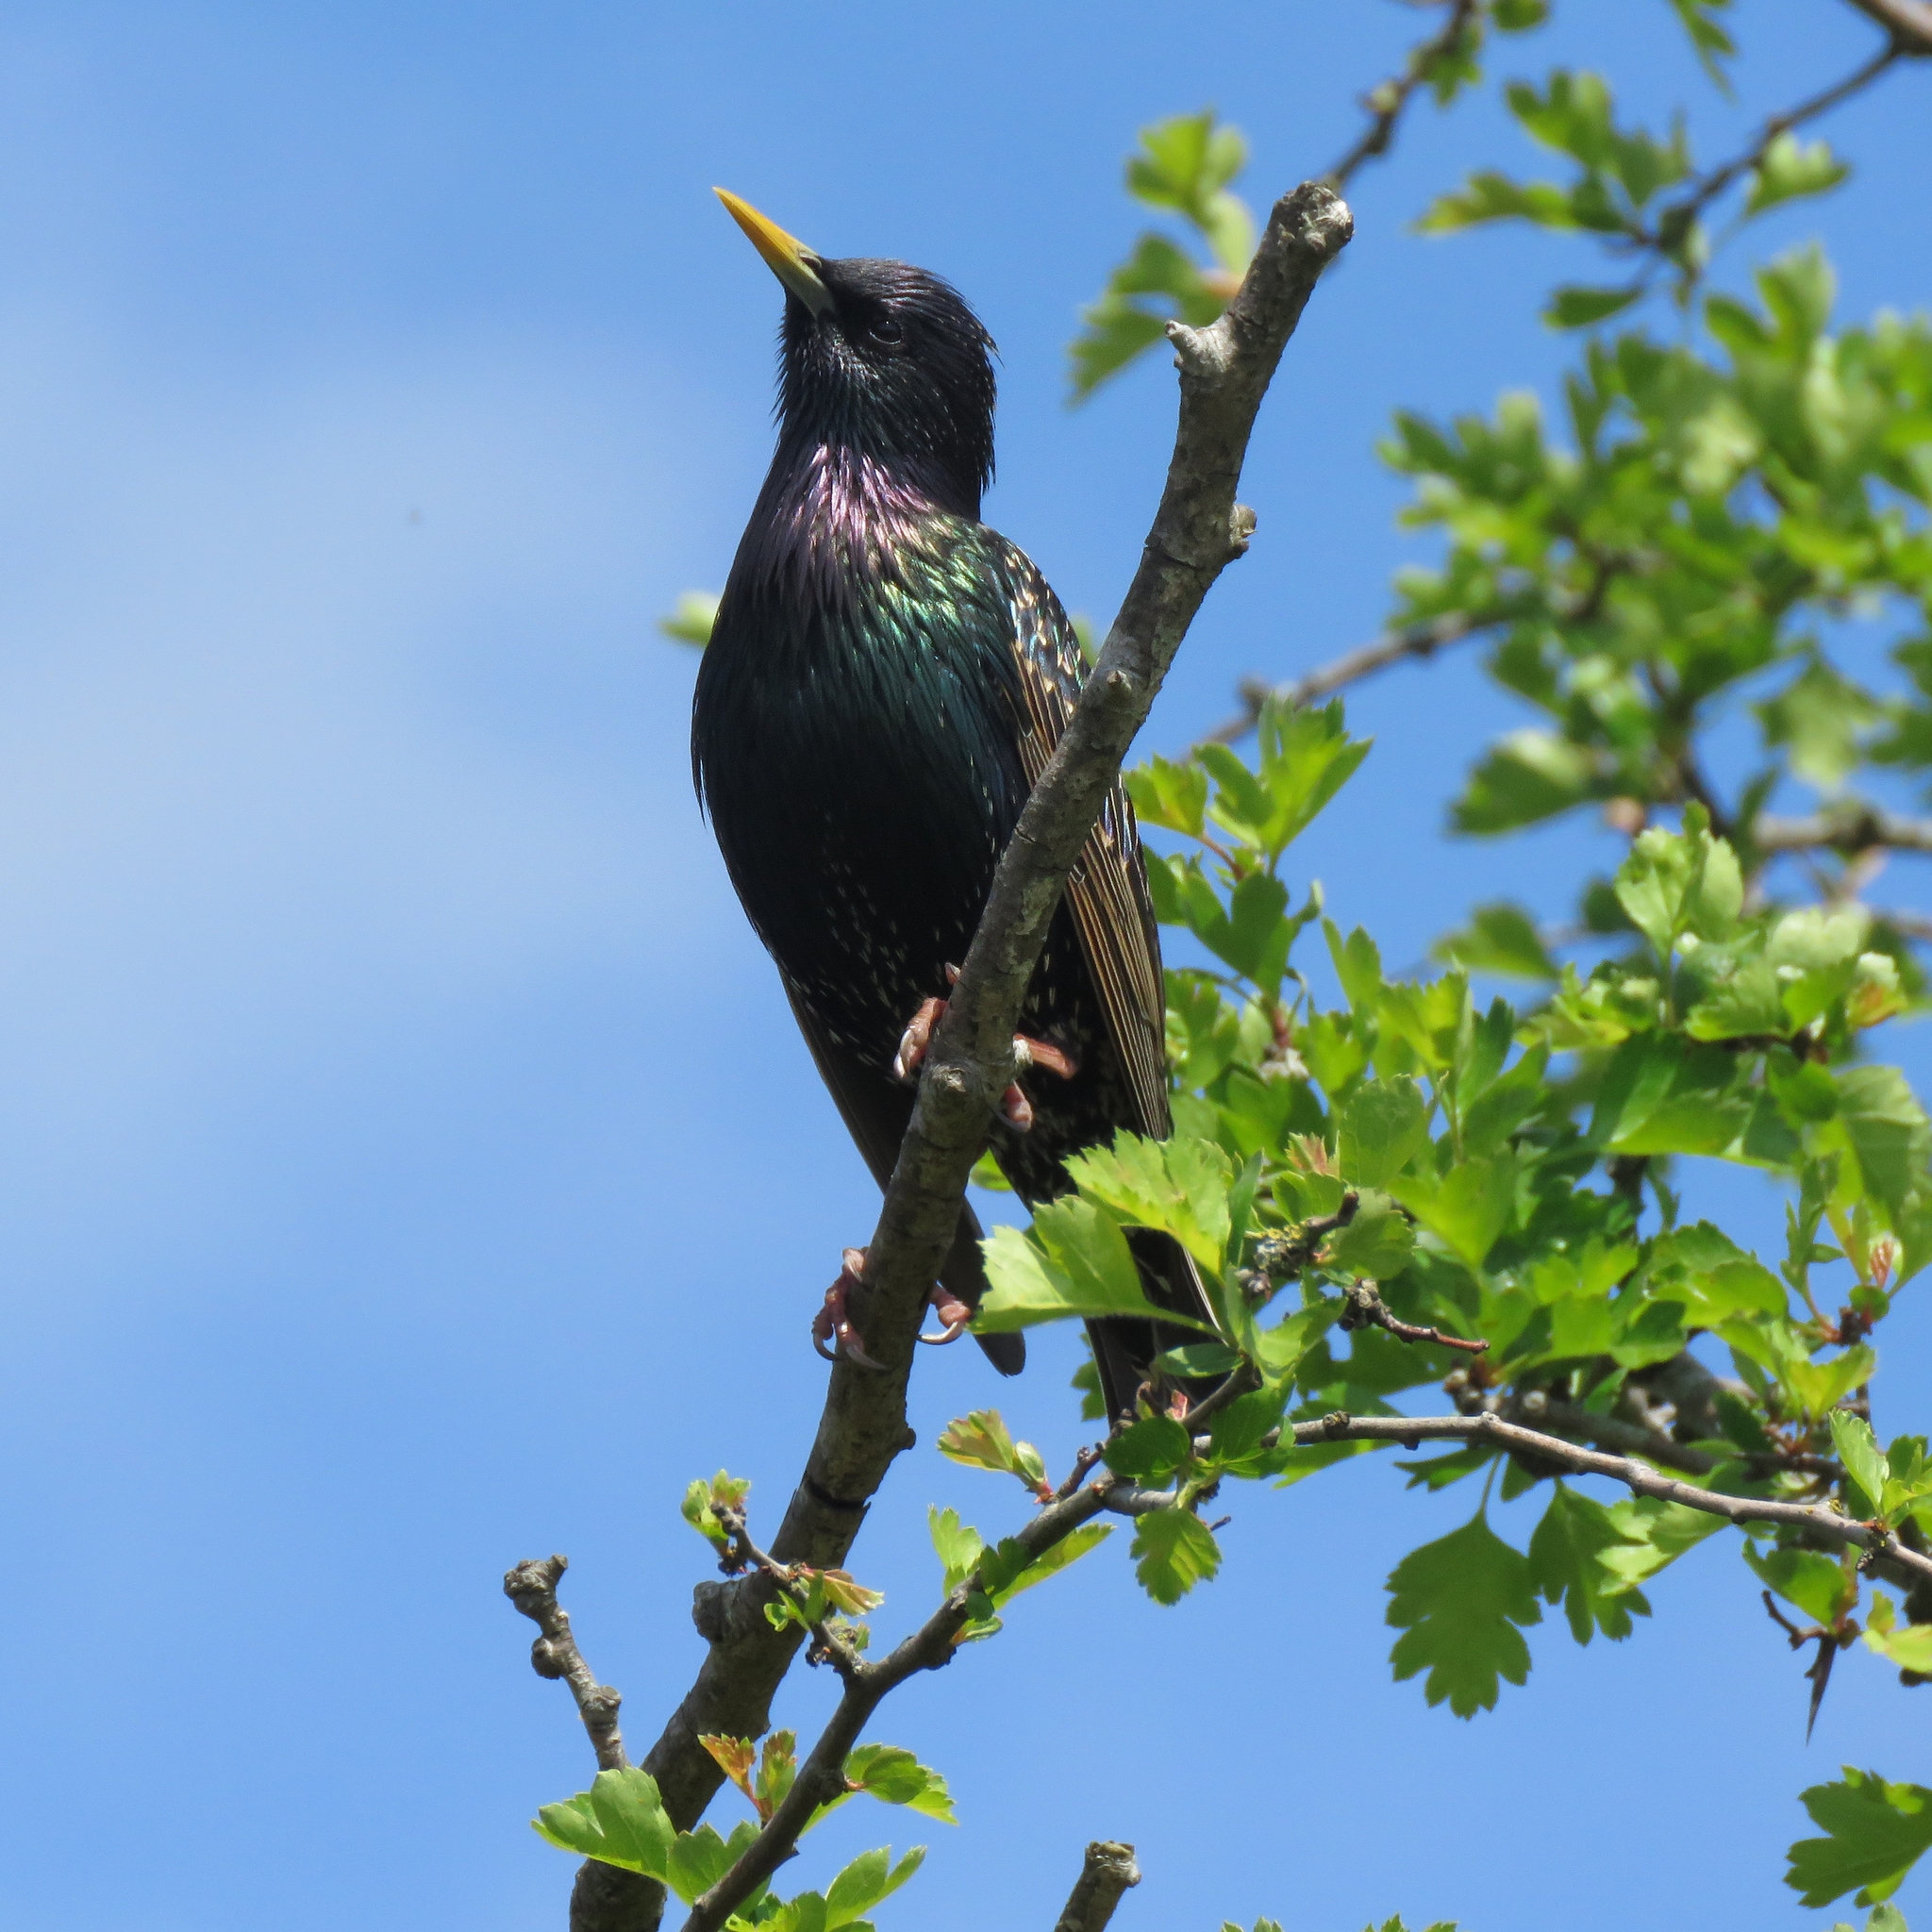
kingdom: Animalia
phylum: Chordata
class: Aves
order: Passeriformes
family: Sturnidae
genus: Sturnus
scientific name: Sturnus vulgaris
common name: Common starling
